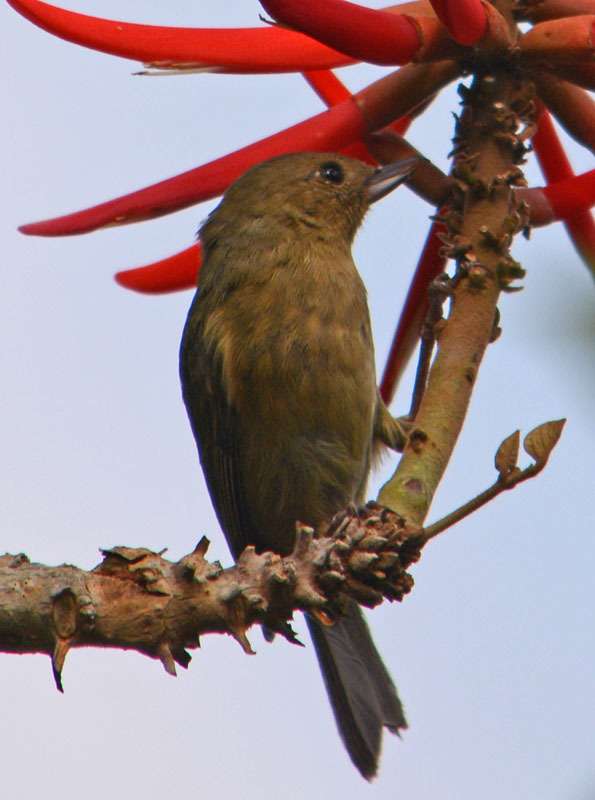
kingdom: Animalia
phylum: Chordata
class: Aves
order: Passeriformes
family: Thraupidae
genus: Diglossa
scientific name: Diglossa baritula
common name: Cinnamon-bellied flowerpiercer
